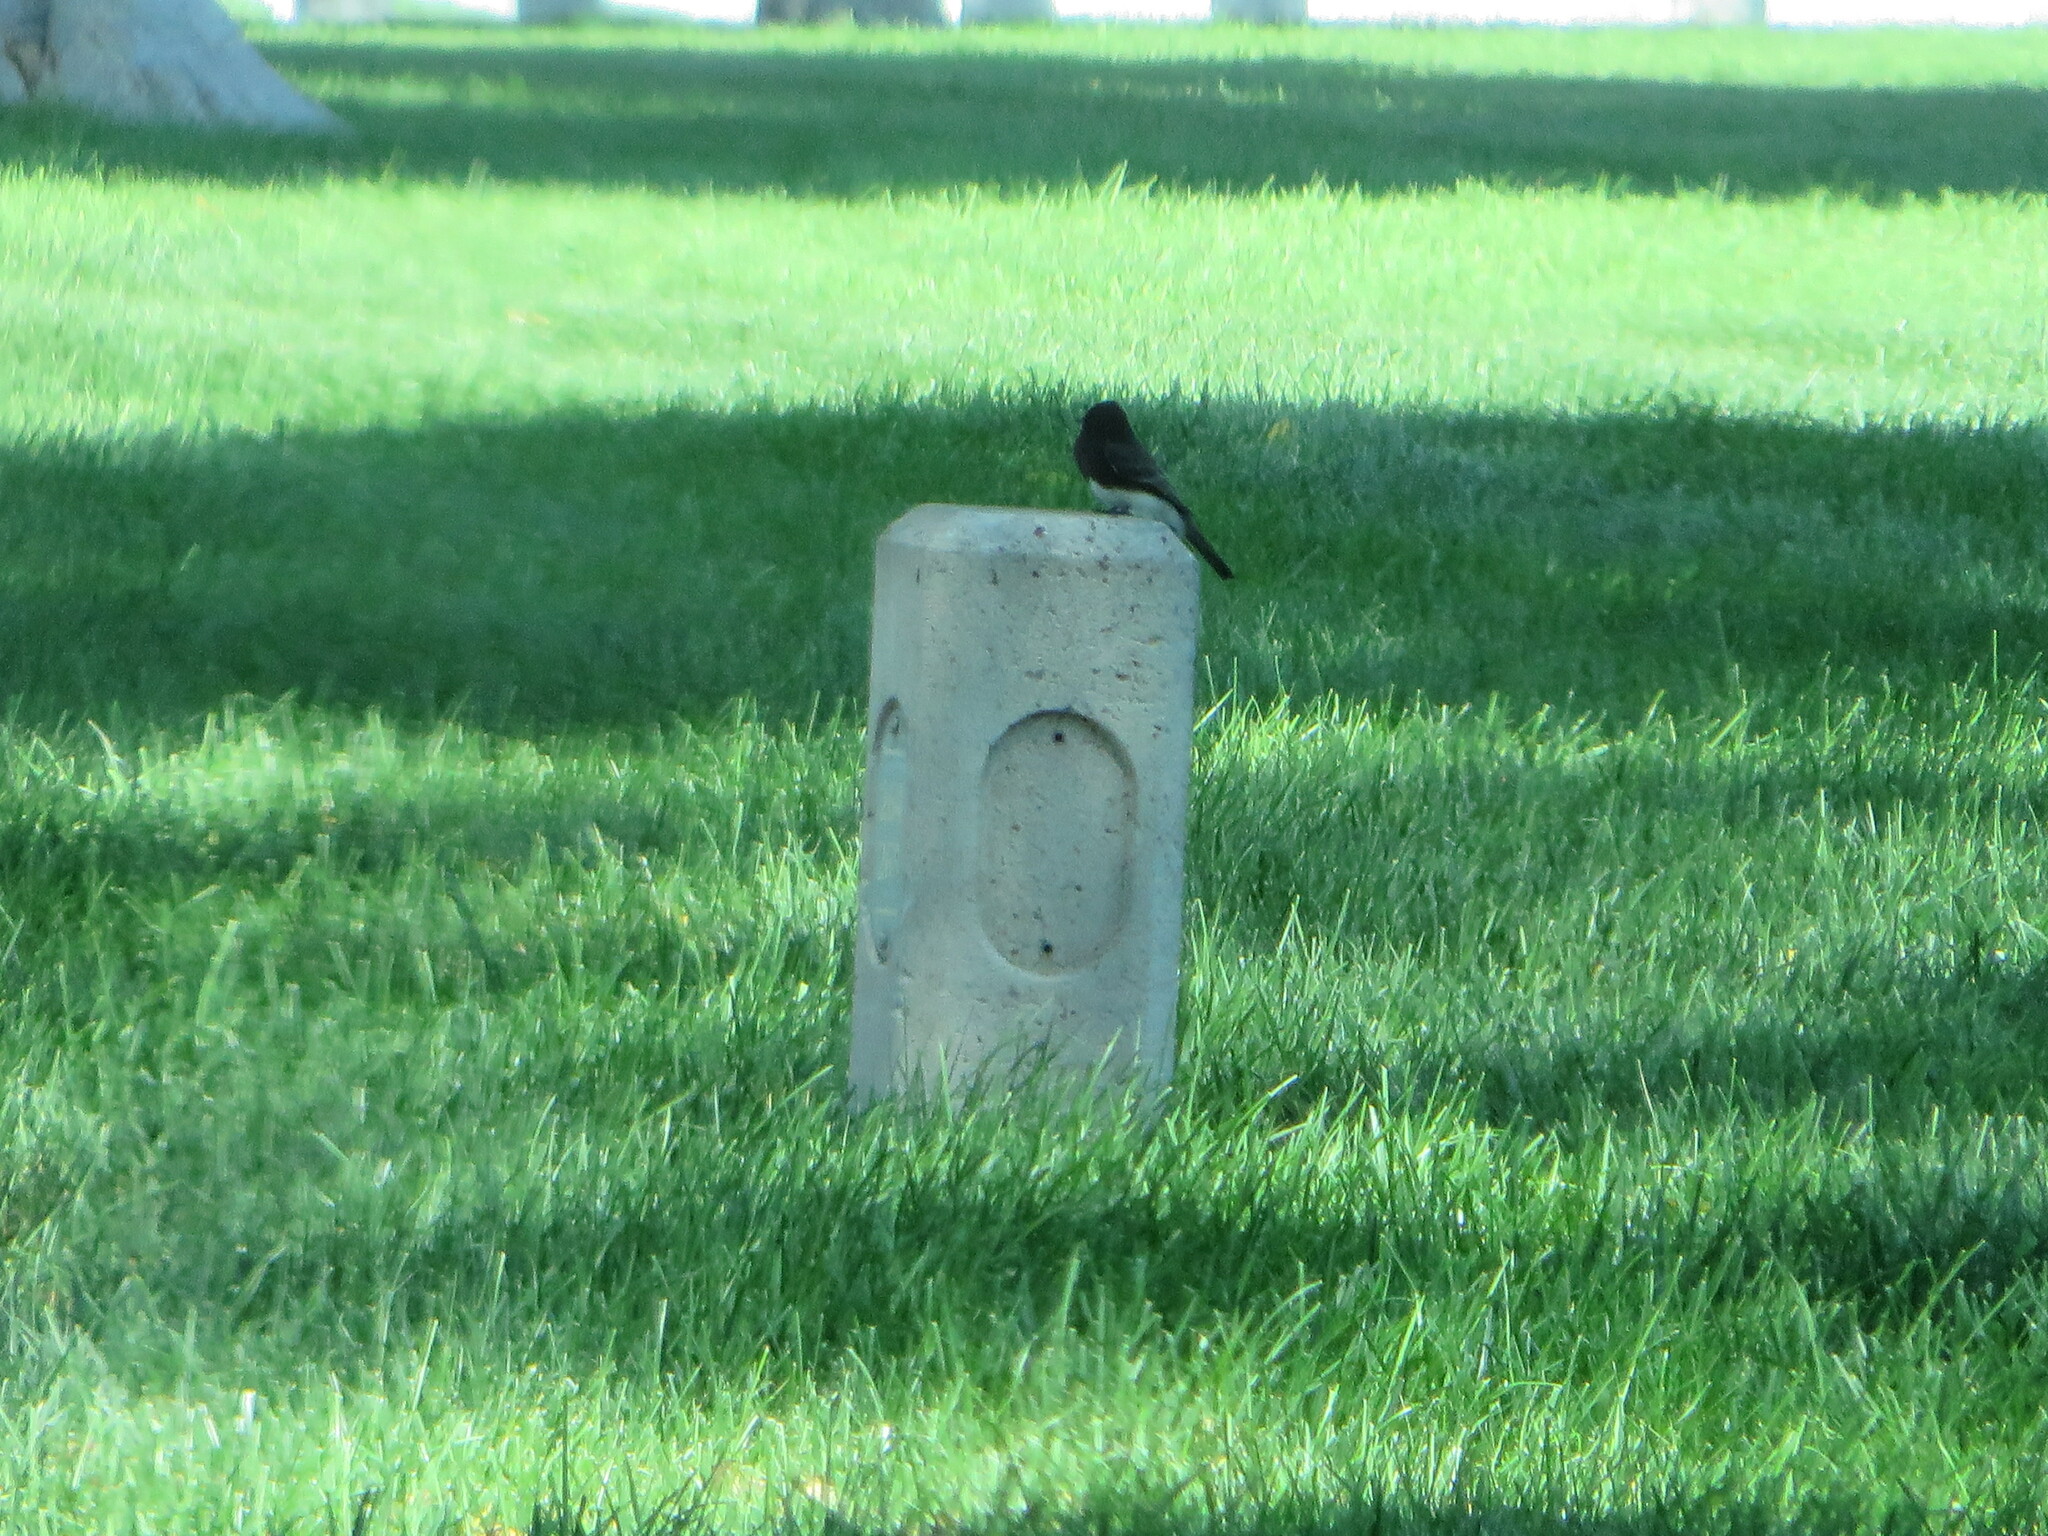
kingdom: Animalia
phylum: Chordata
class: Aves
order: Passeriformes
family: Tyrannidae
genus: Sayornis
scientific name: Sayornis nigricans
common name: Black phoebe
